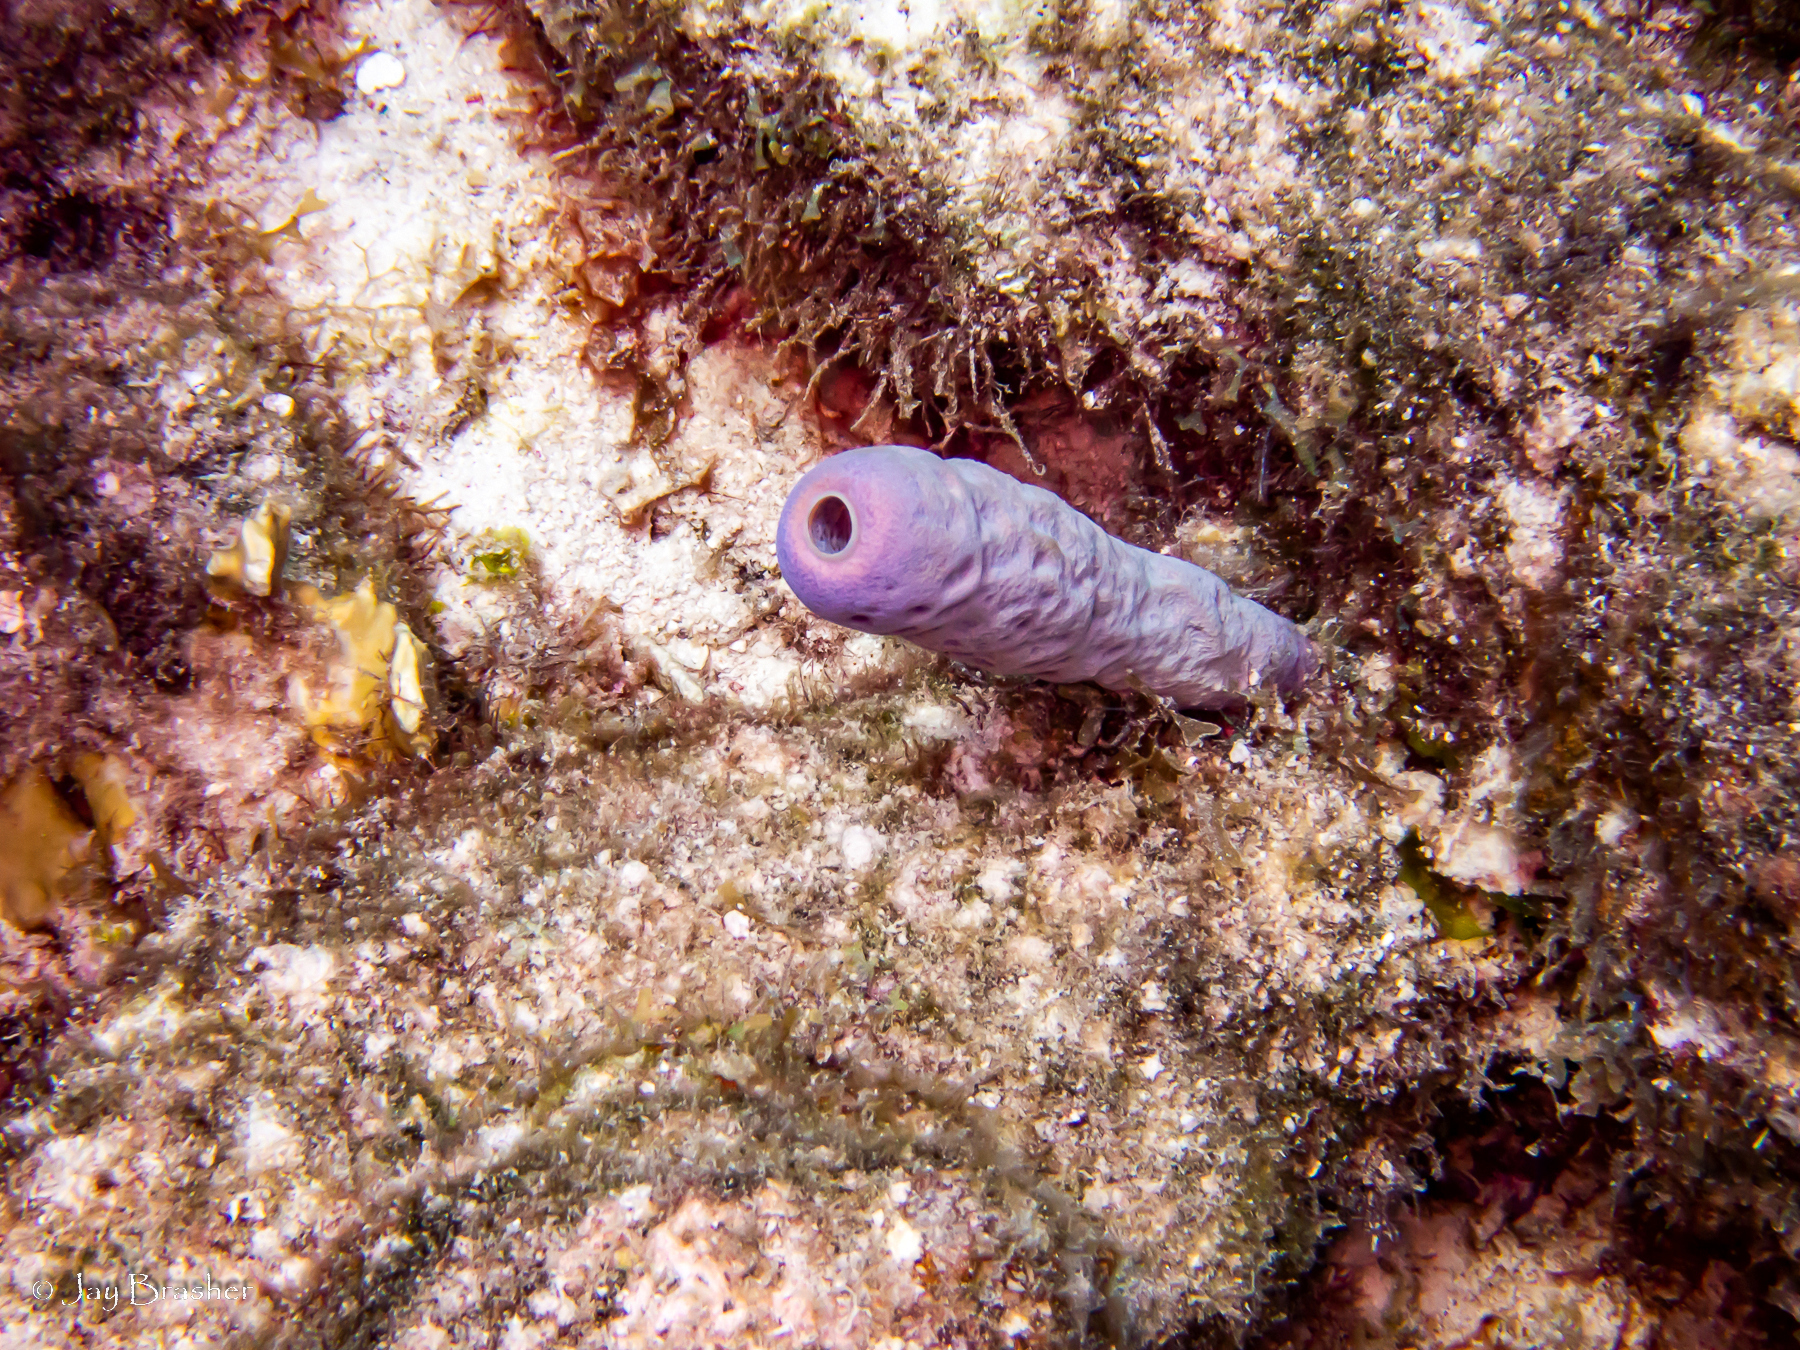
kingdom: Animalia
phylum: Porifera
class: Demospongiae
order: Verongiida
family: Aplysinidae
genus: Aplysina
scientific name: Aplysina archeri
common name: Stove-pipe sponge
